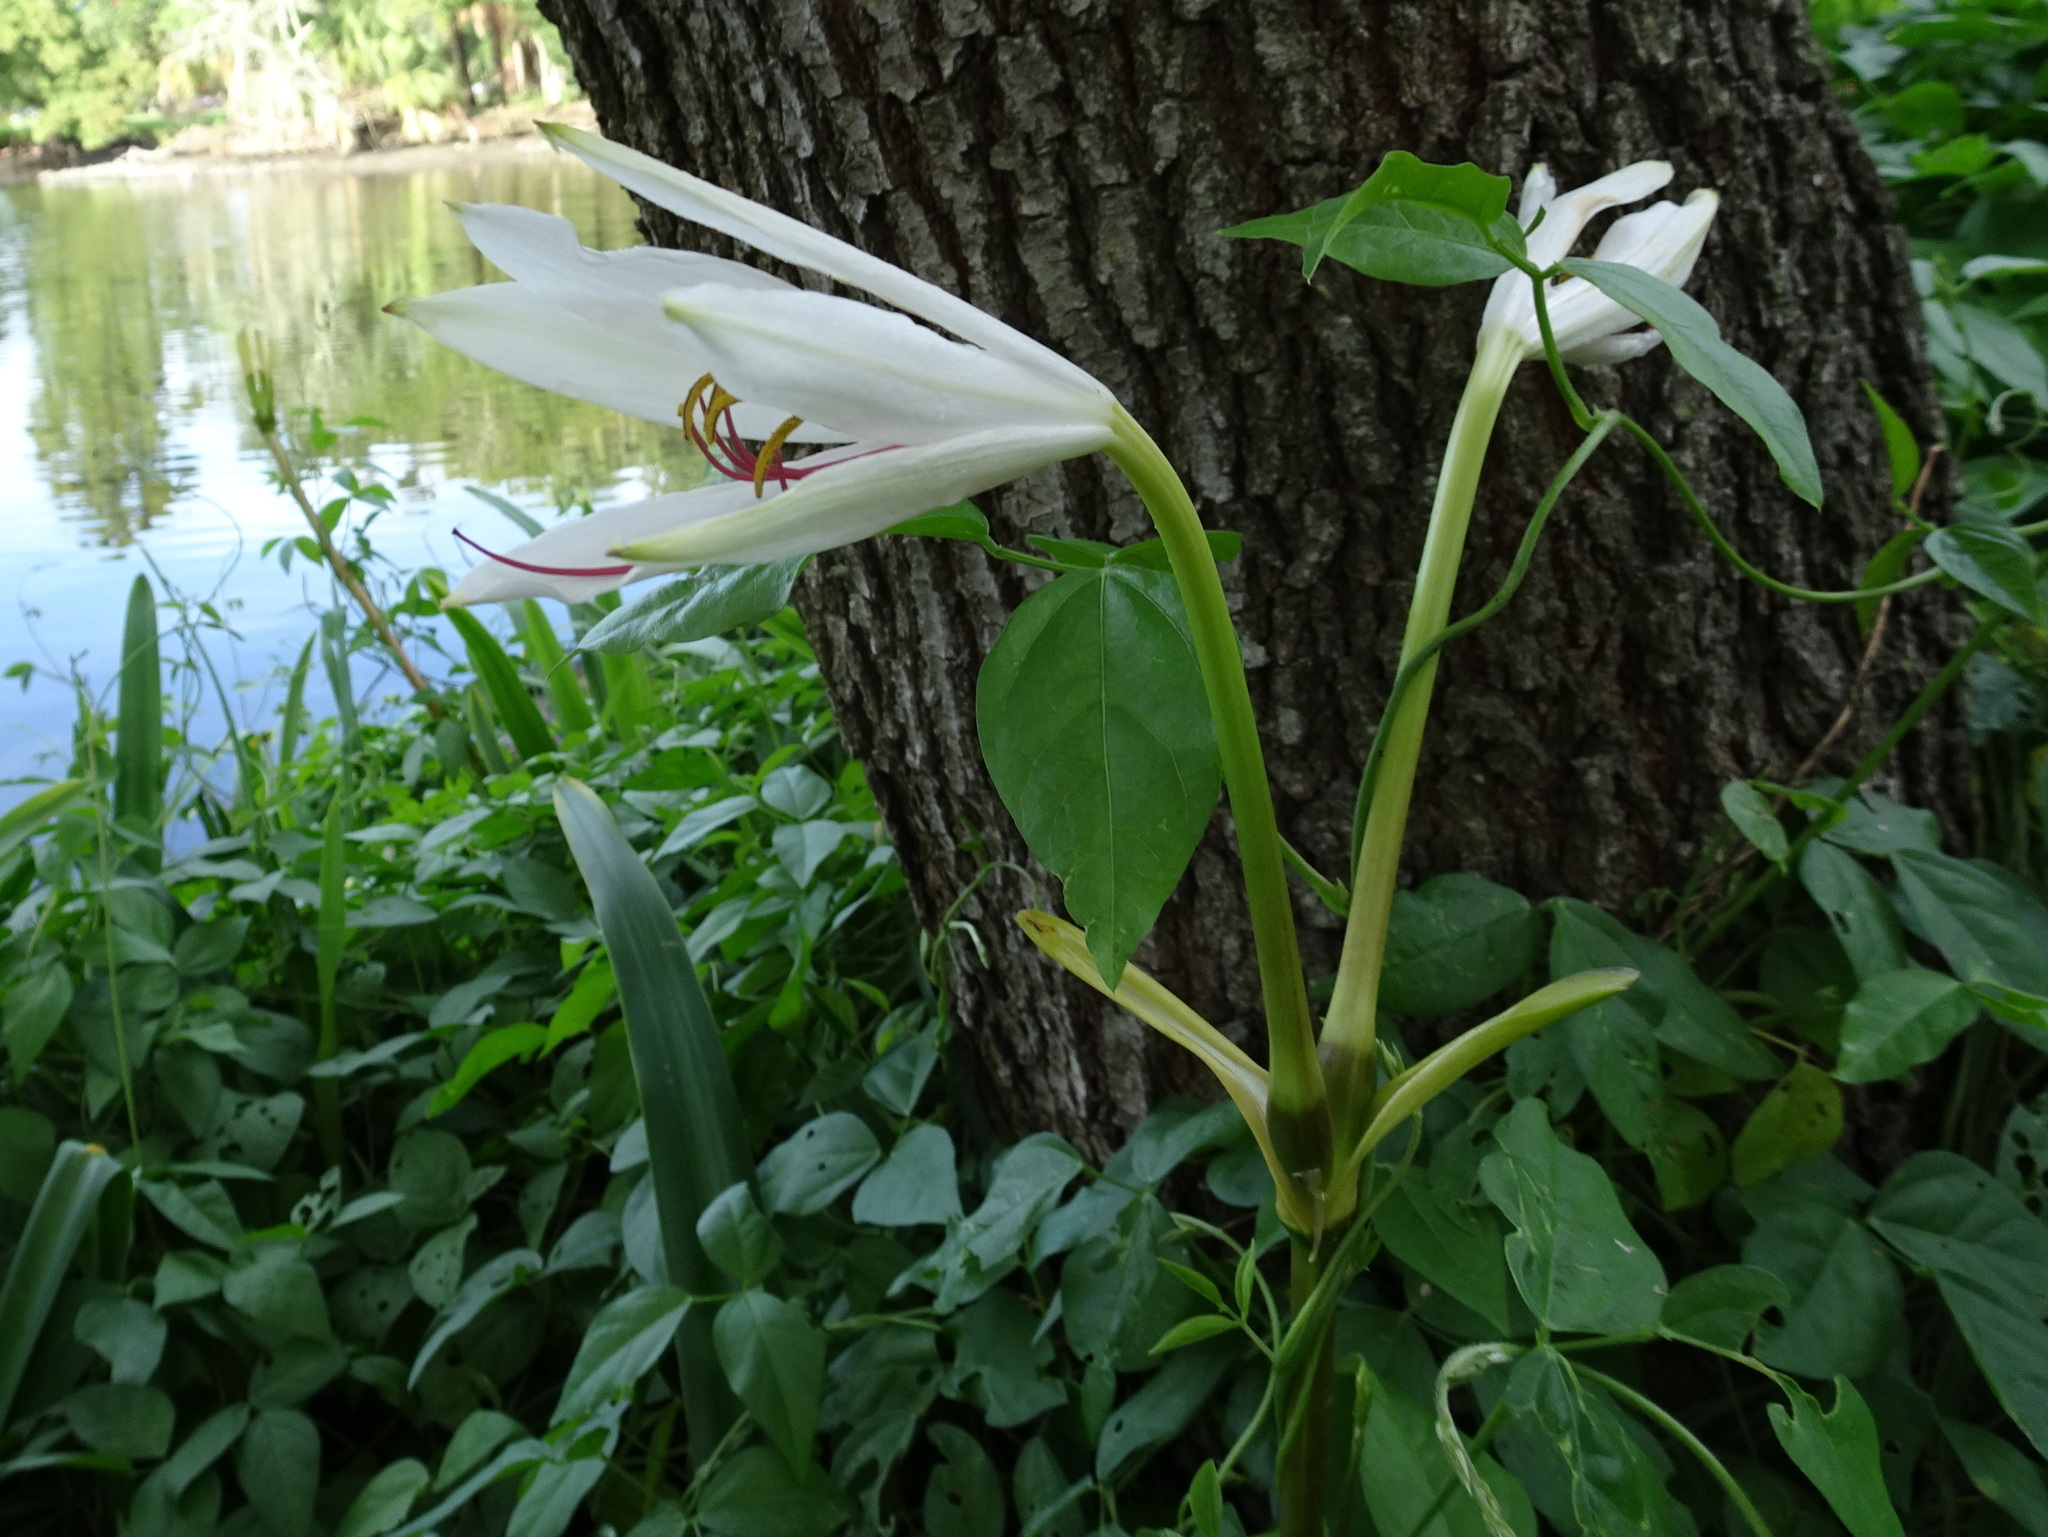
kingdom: Plantae
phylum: Tracheophyta
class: Liliopsida
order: Asparagales
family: Amaryllidaceae
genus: Crinum
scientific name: Crinum americanum
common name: Florida swamp-lily
